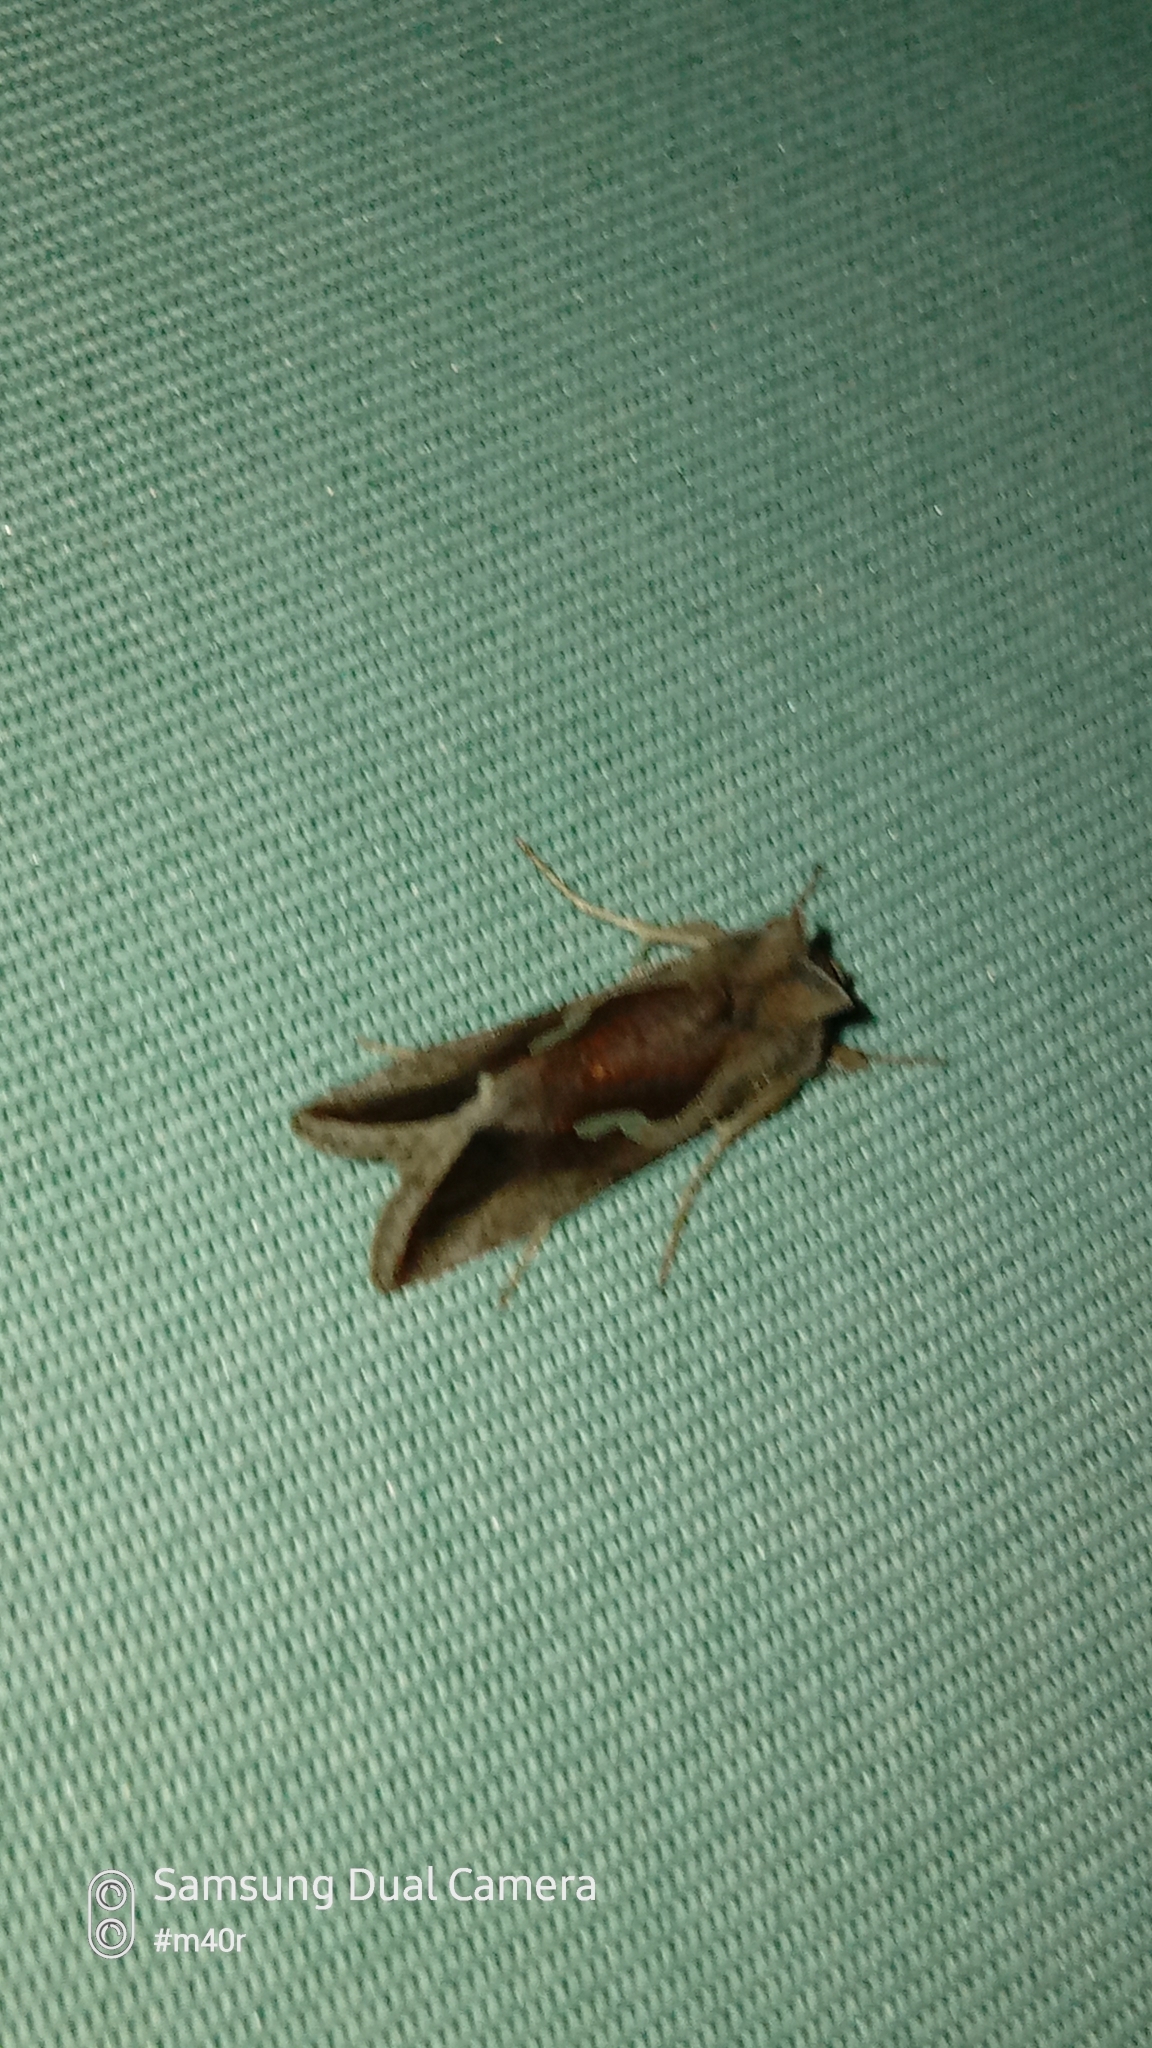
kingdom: Animalia
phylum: Arthropoda
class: Insecta
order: Lepidoptera
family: Noctuidae
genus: Macdunnoughia
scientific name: Macdunnoughia confusa
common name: Dewick's plusia
